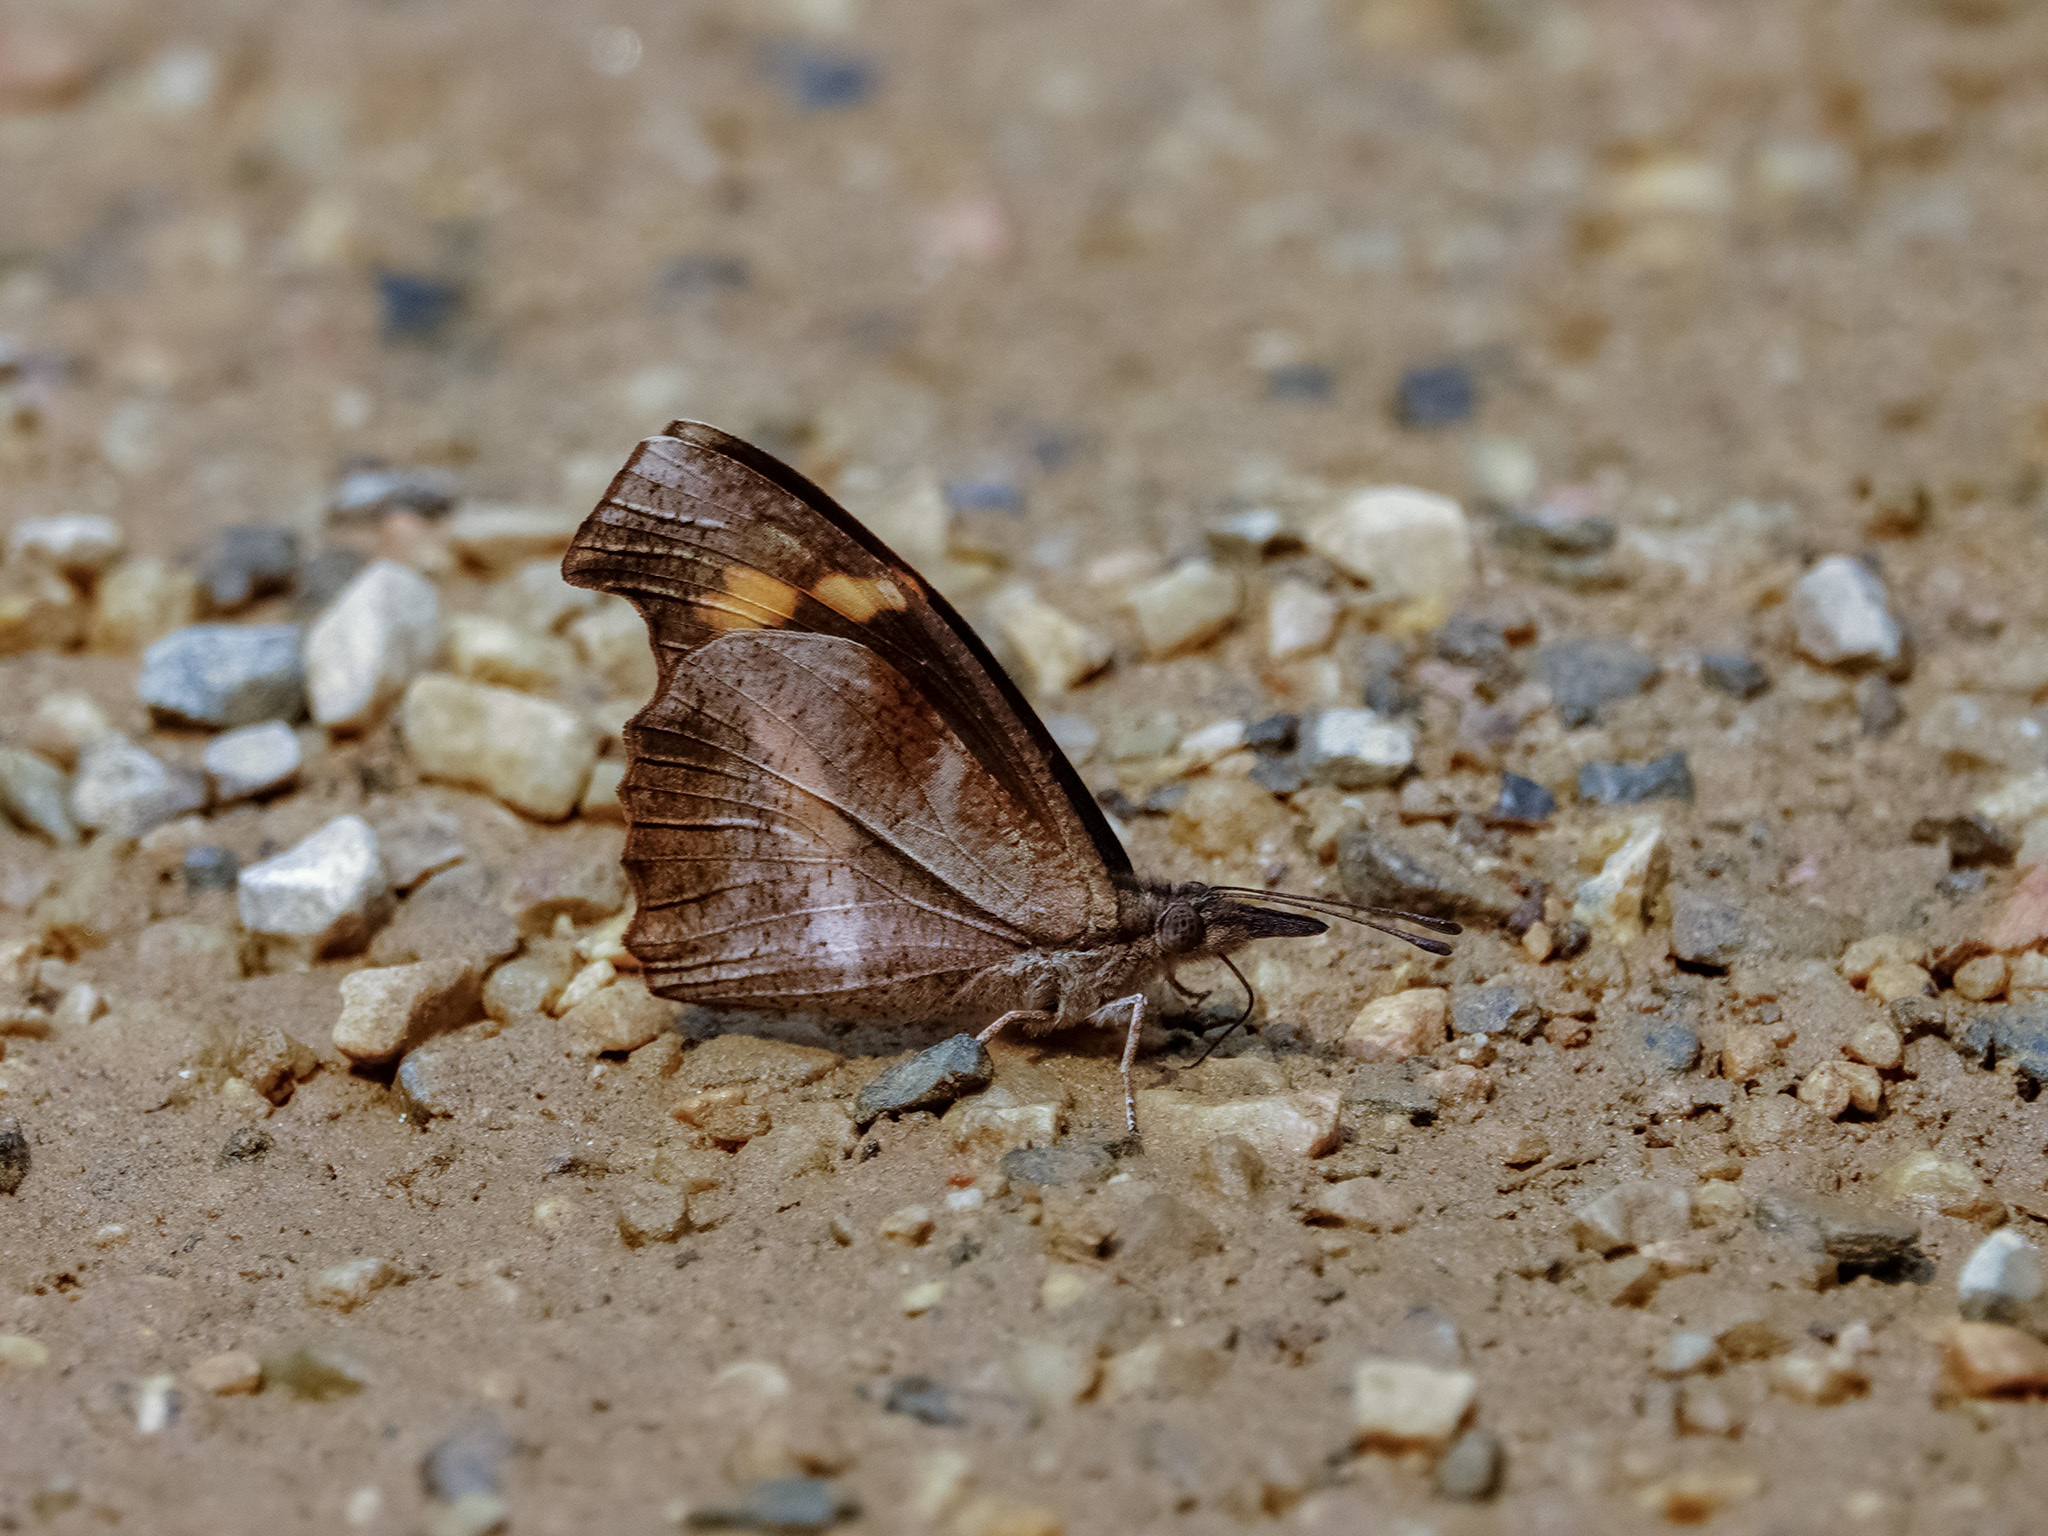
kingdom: Animalia
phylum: Arthropoda
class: Insecta
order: Lepidoptera
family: Nymphalidae
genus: Libythea
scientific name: Libythea myrrha
